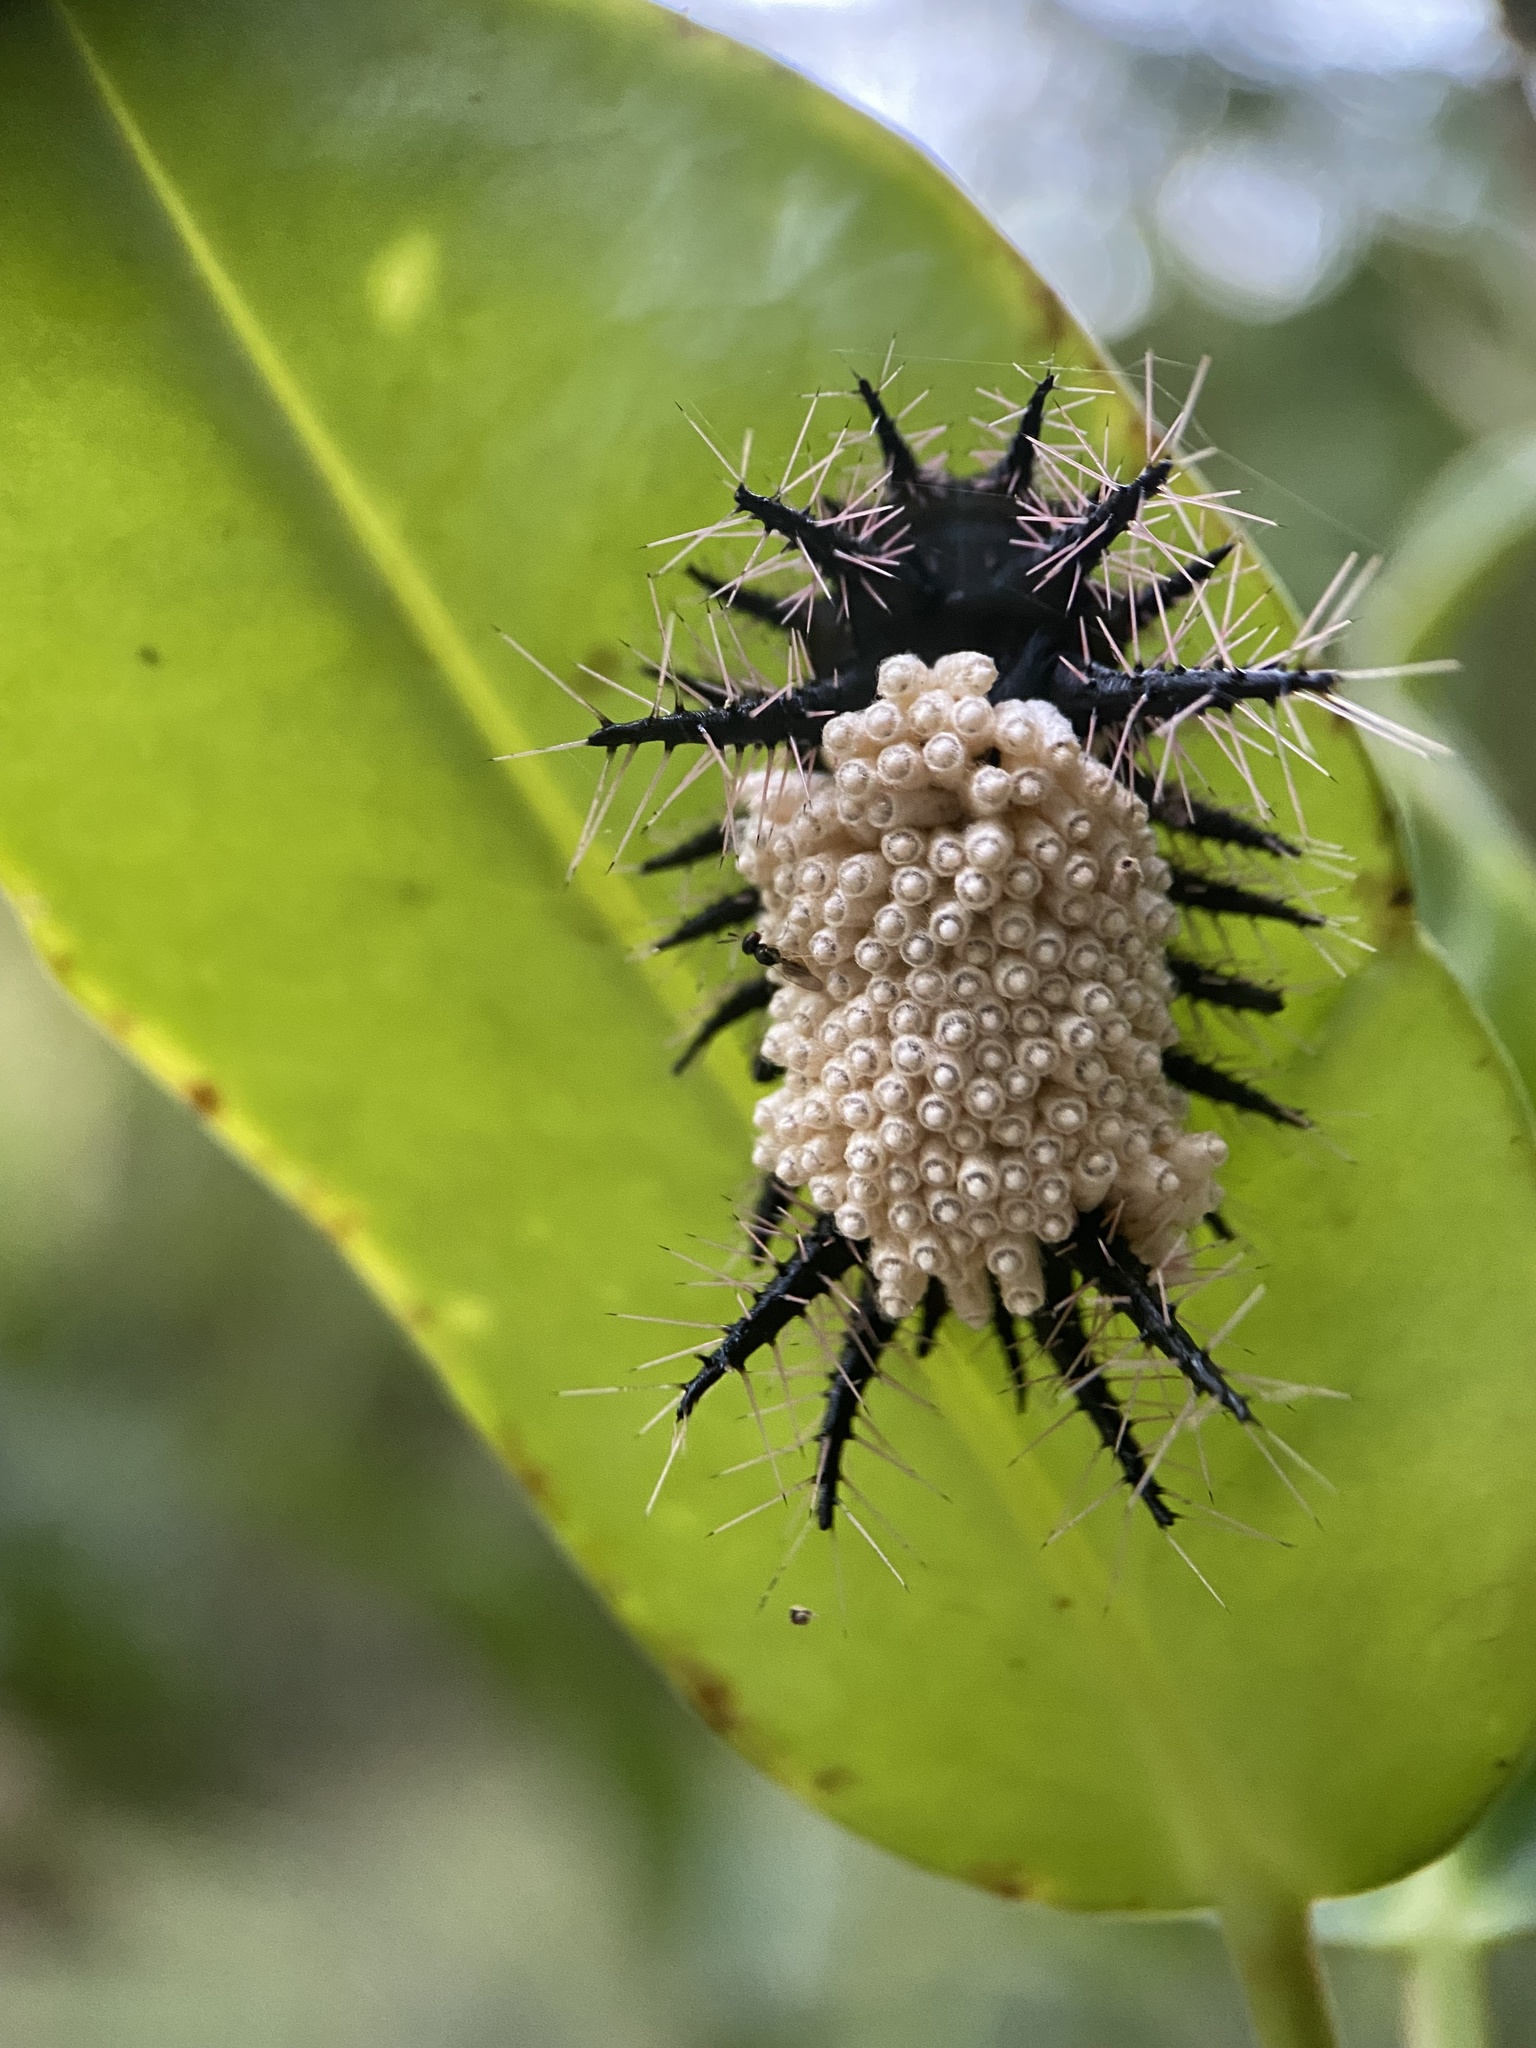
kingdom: Animalia
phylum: Arthropoda
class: Insecta
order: Lepidoptera
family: Limacodidae
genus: Sibine
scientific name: Sibine nesea
